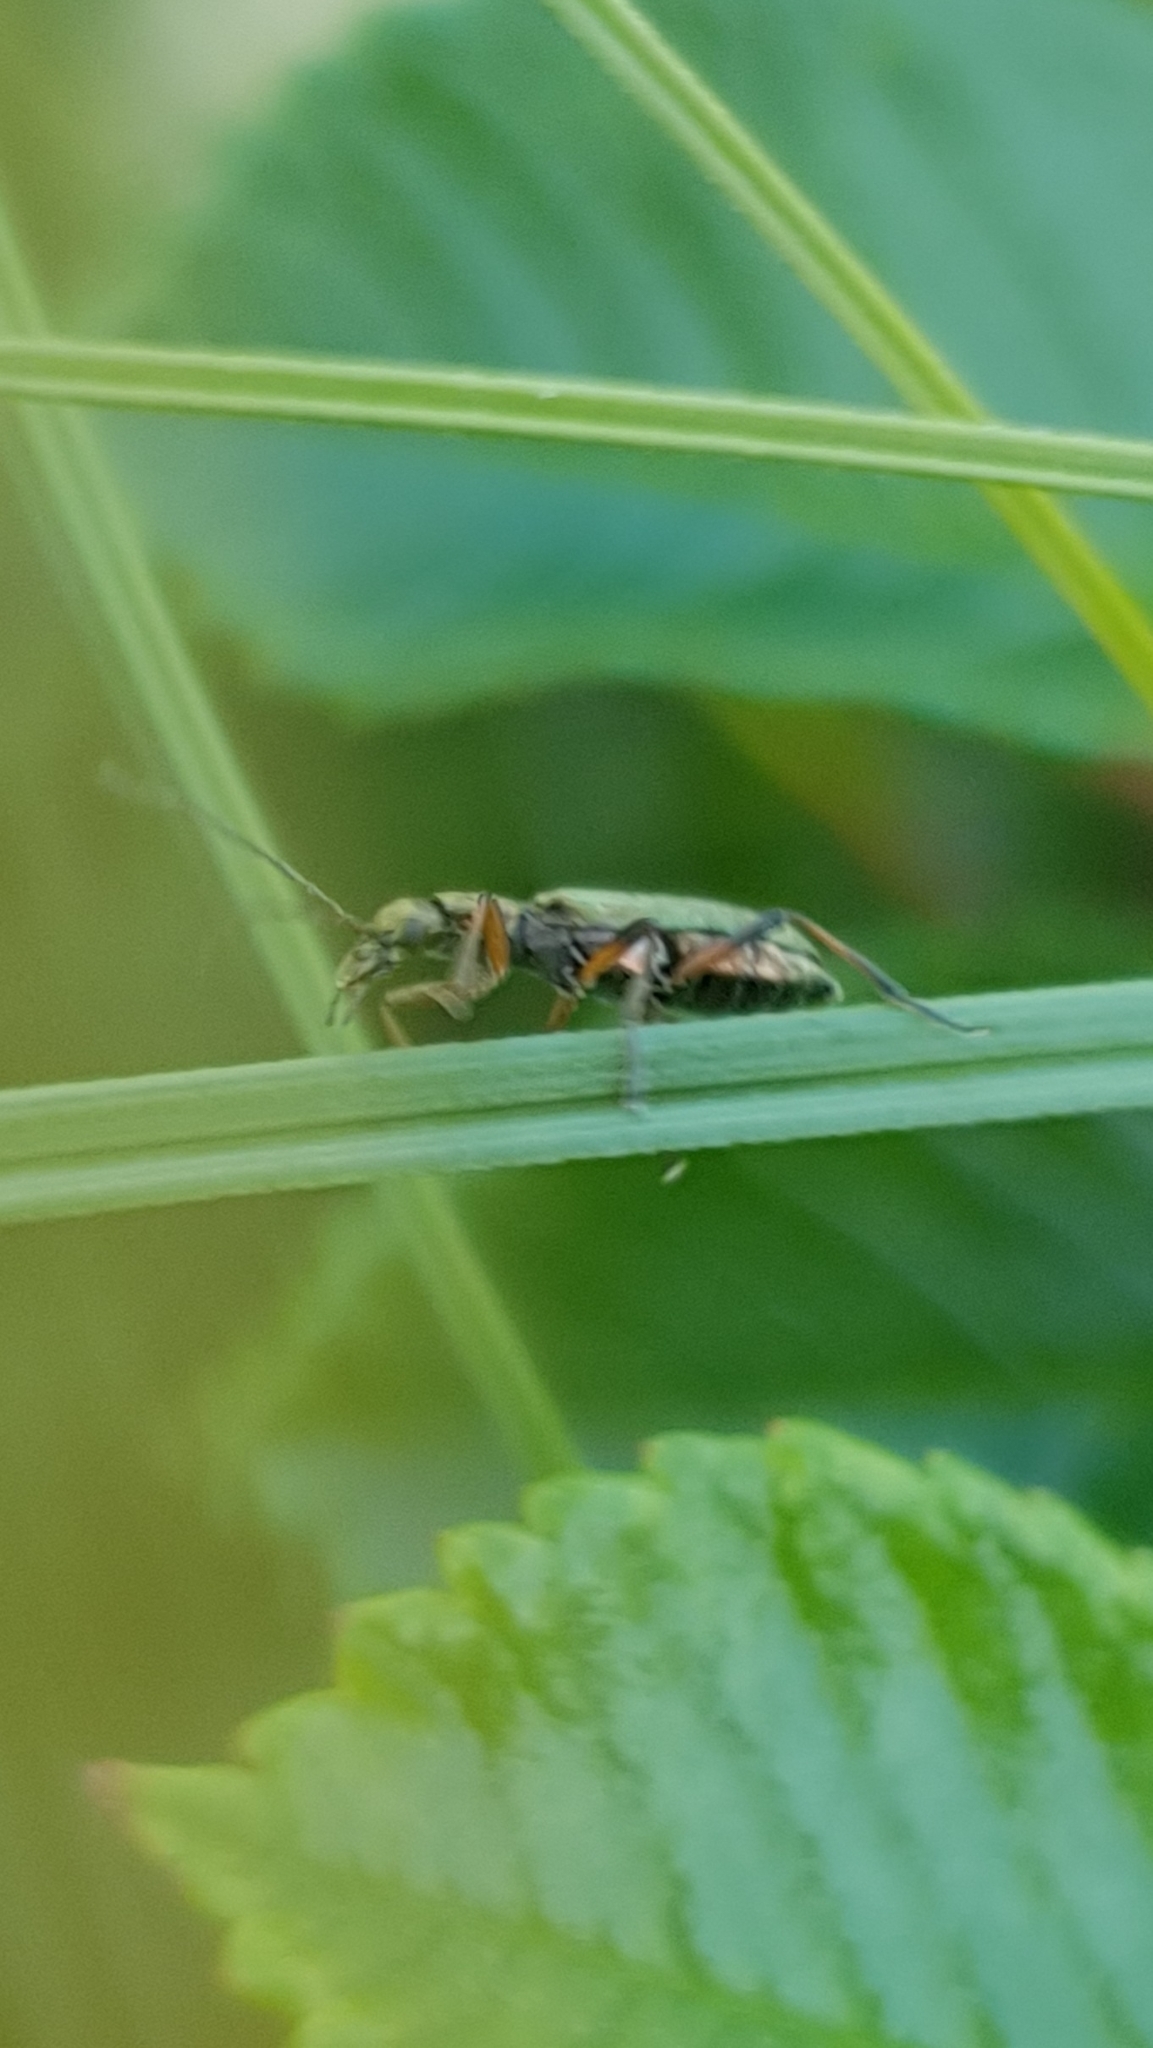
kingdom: Animalia
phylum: Arthropoda
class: Insecta
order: Coleoptera
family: Oedemeridae
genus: Chrysanthia
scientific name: Chrysanthia geniculata
